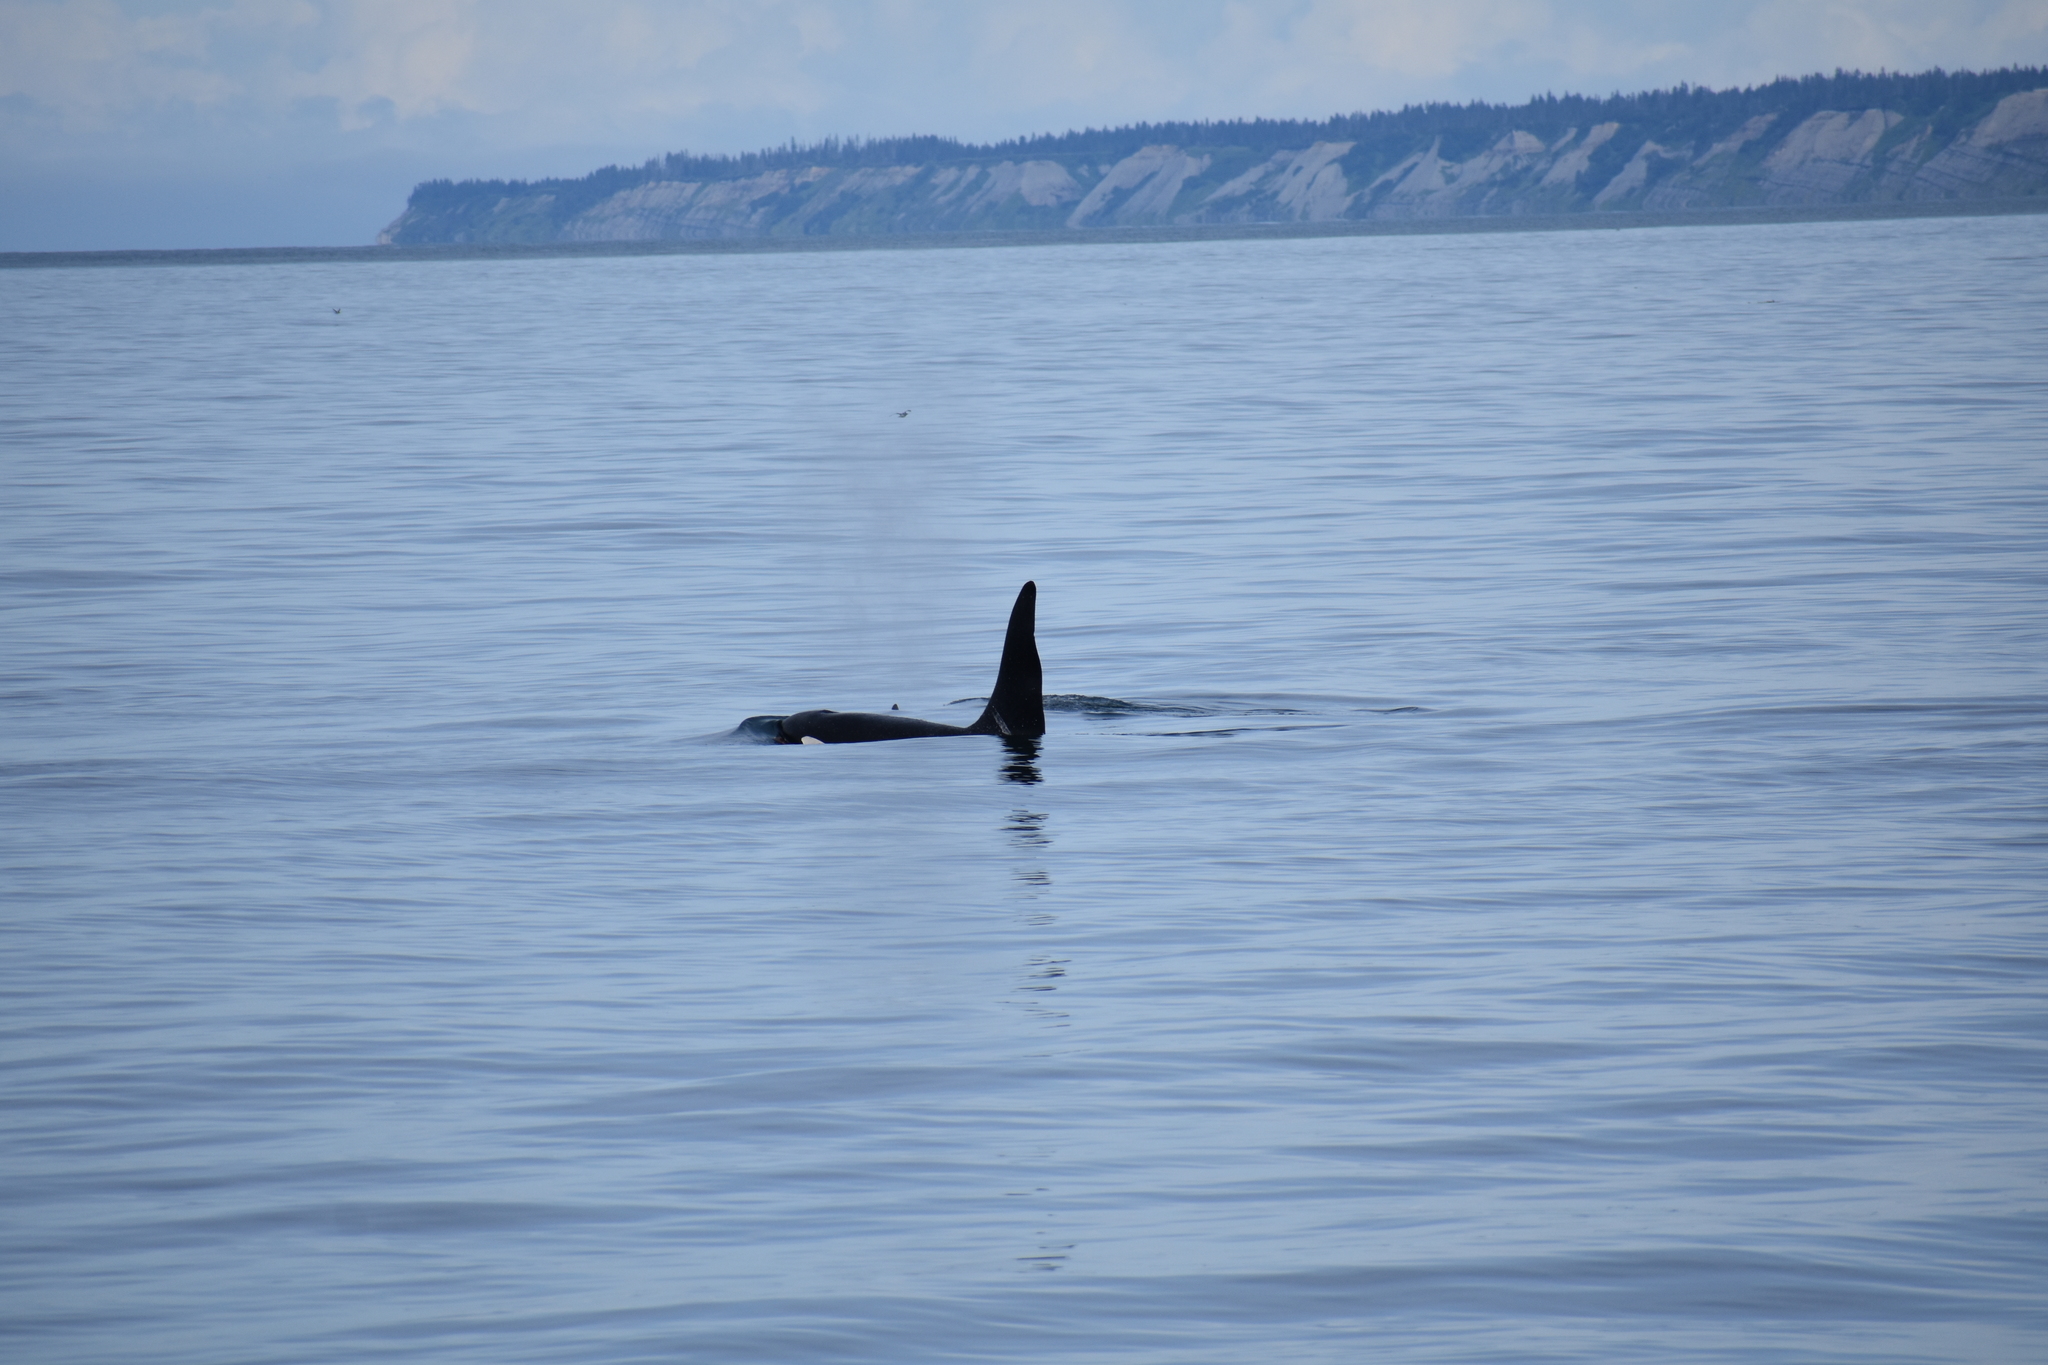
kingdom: Animalia
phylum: Chordata
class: Mammalia
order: Cetacea
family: Delphinidae
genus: Orcinus
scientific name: Orcinus orca
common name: Killer whale
